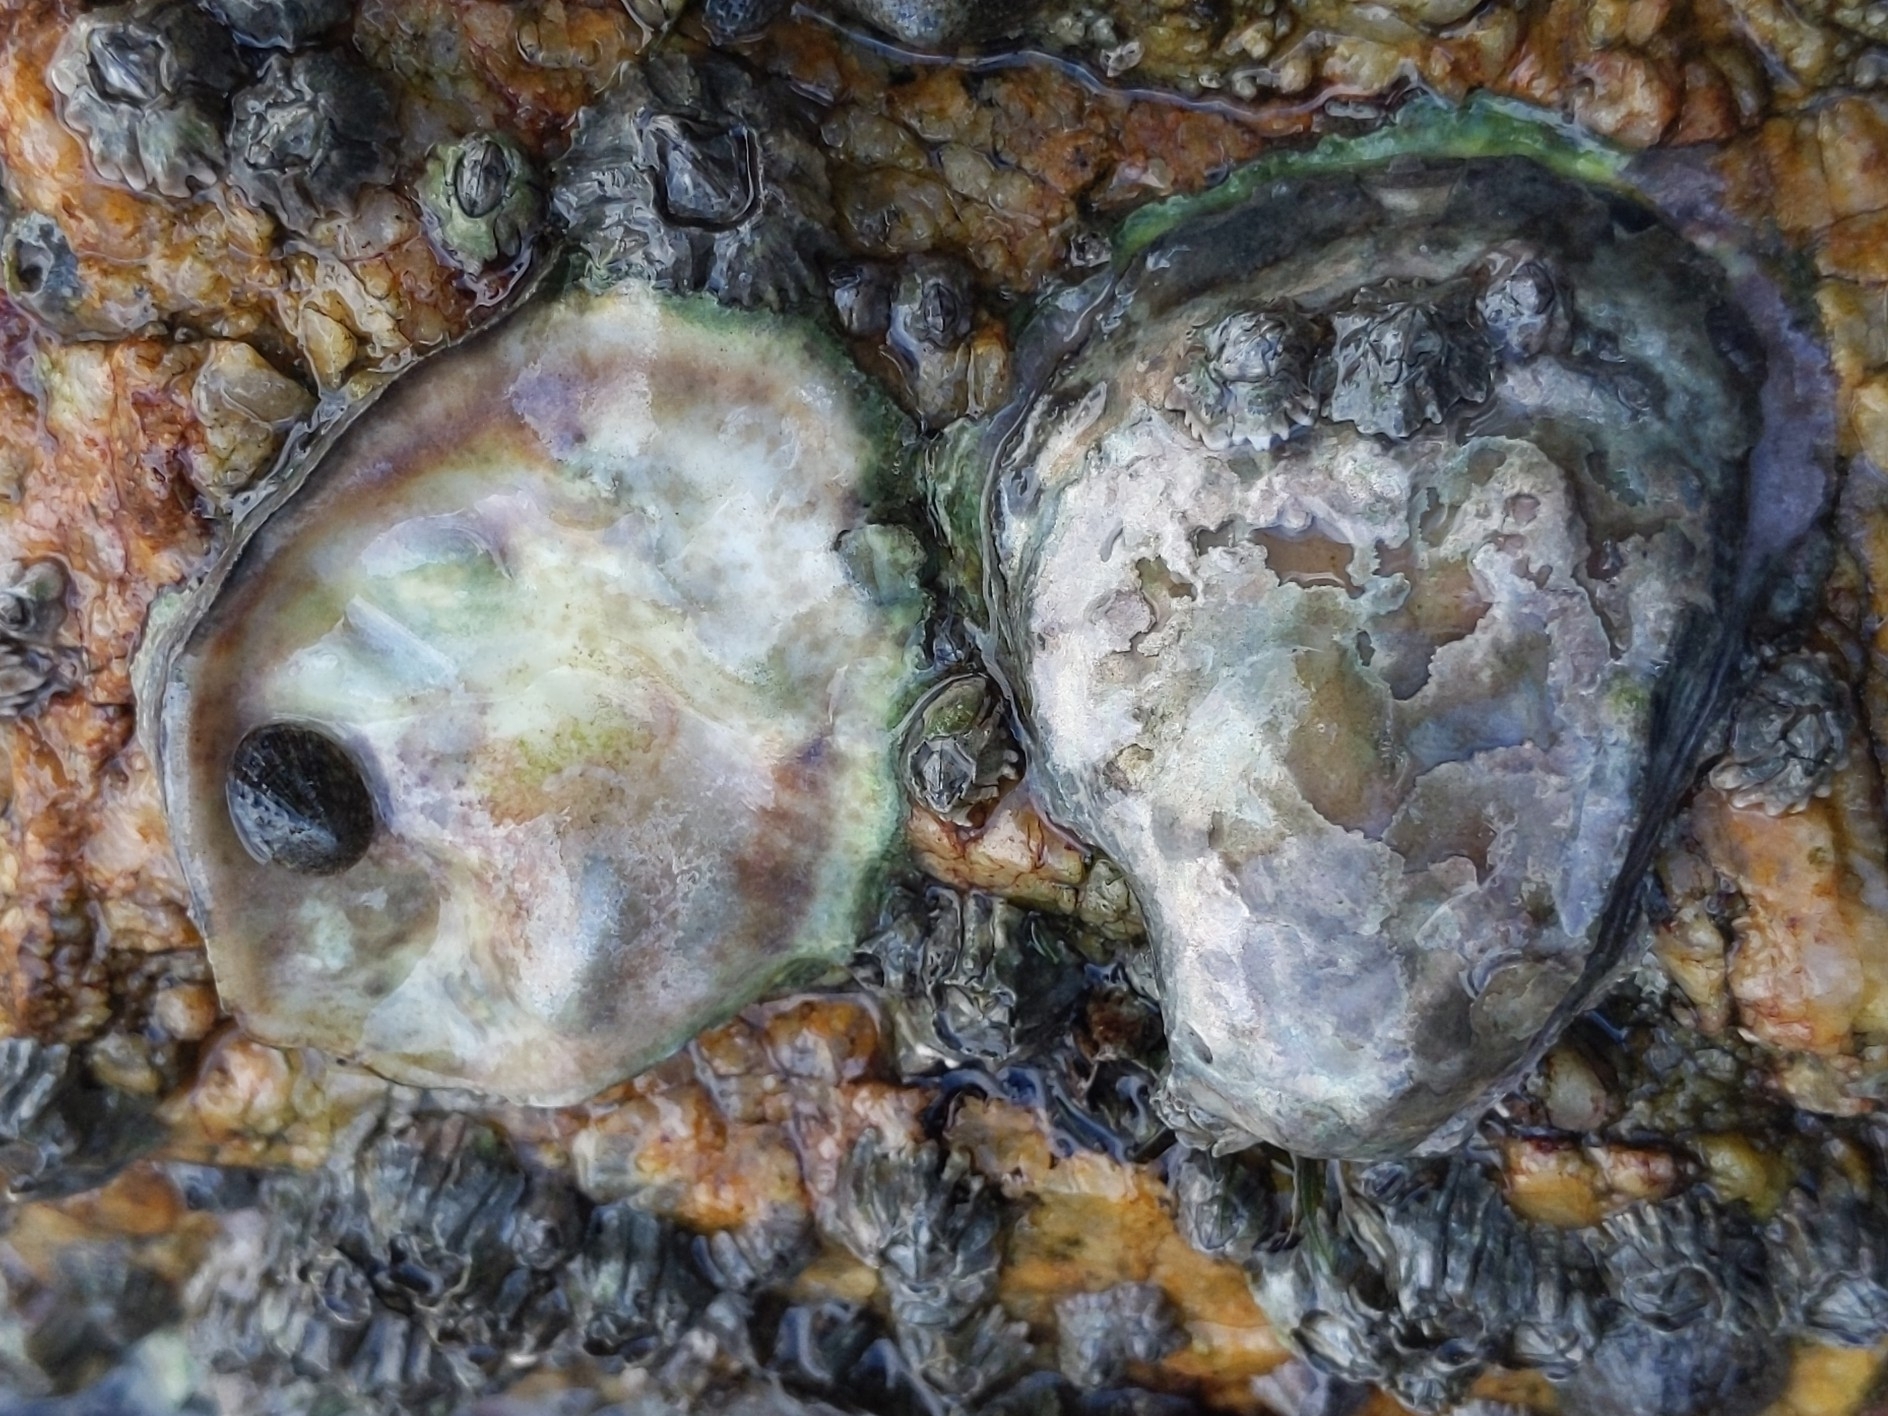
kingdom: Animalia
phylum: Mollusca
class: Bivalvia
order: Ostreida
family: Ostreidae
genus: Ostrea
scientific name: Ostrea lurida
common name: Olympia flat oyster
